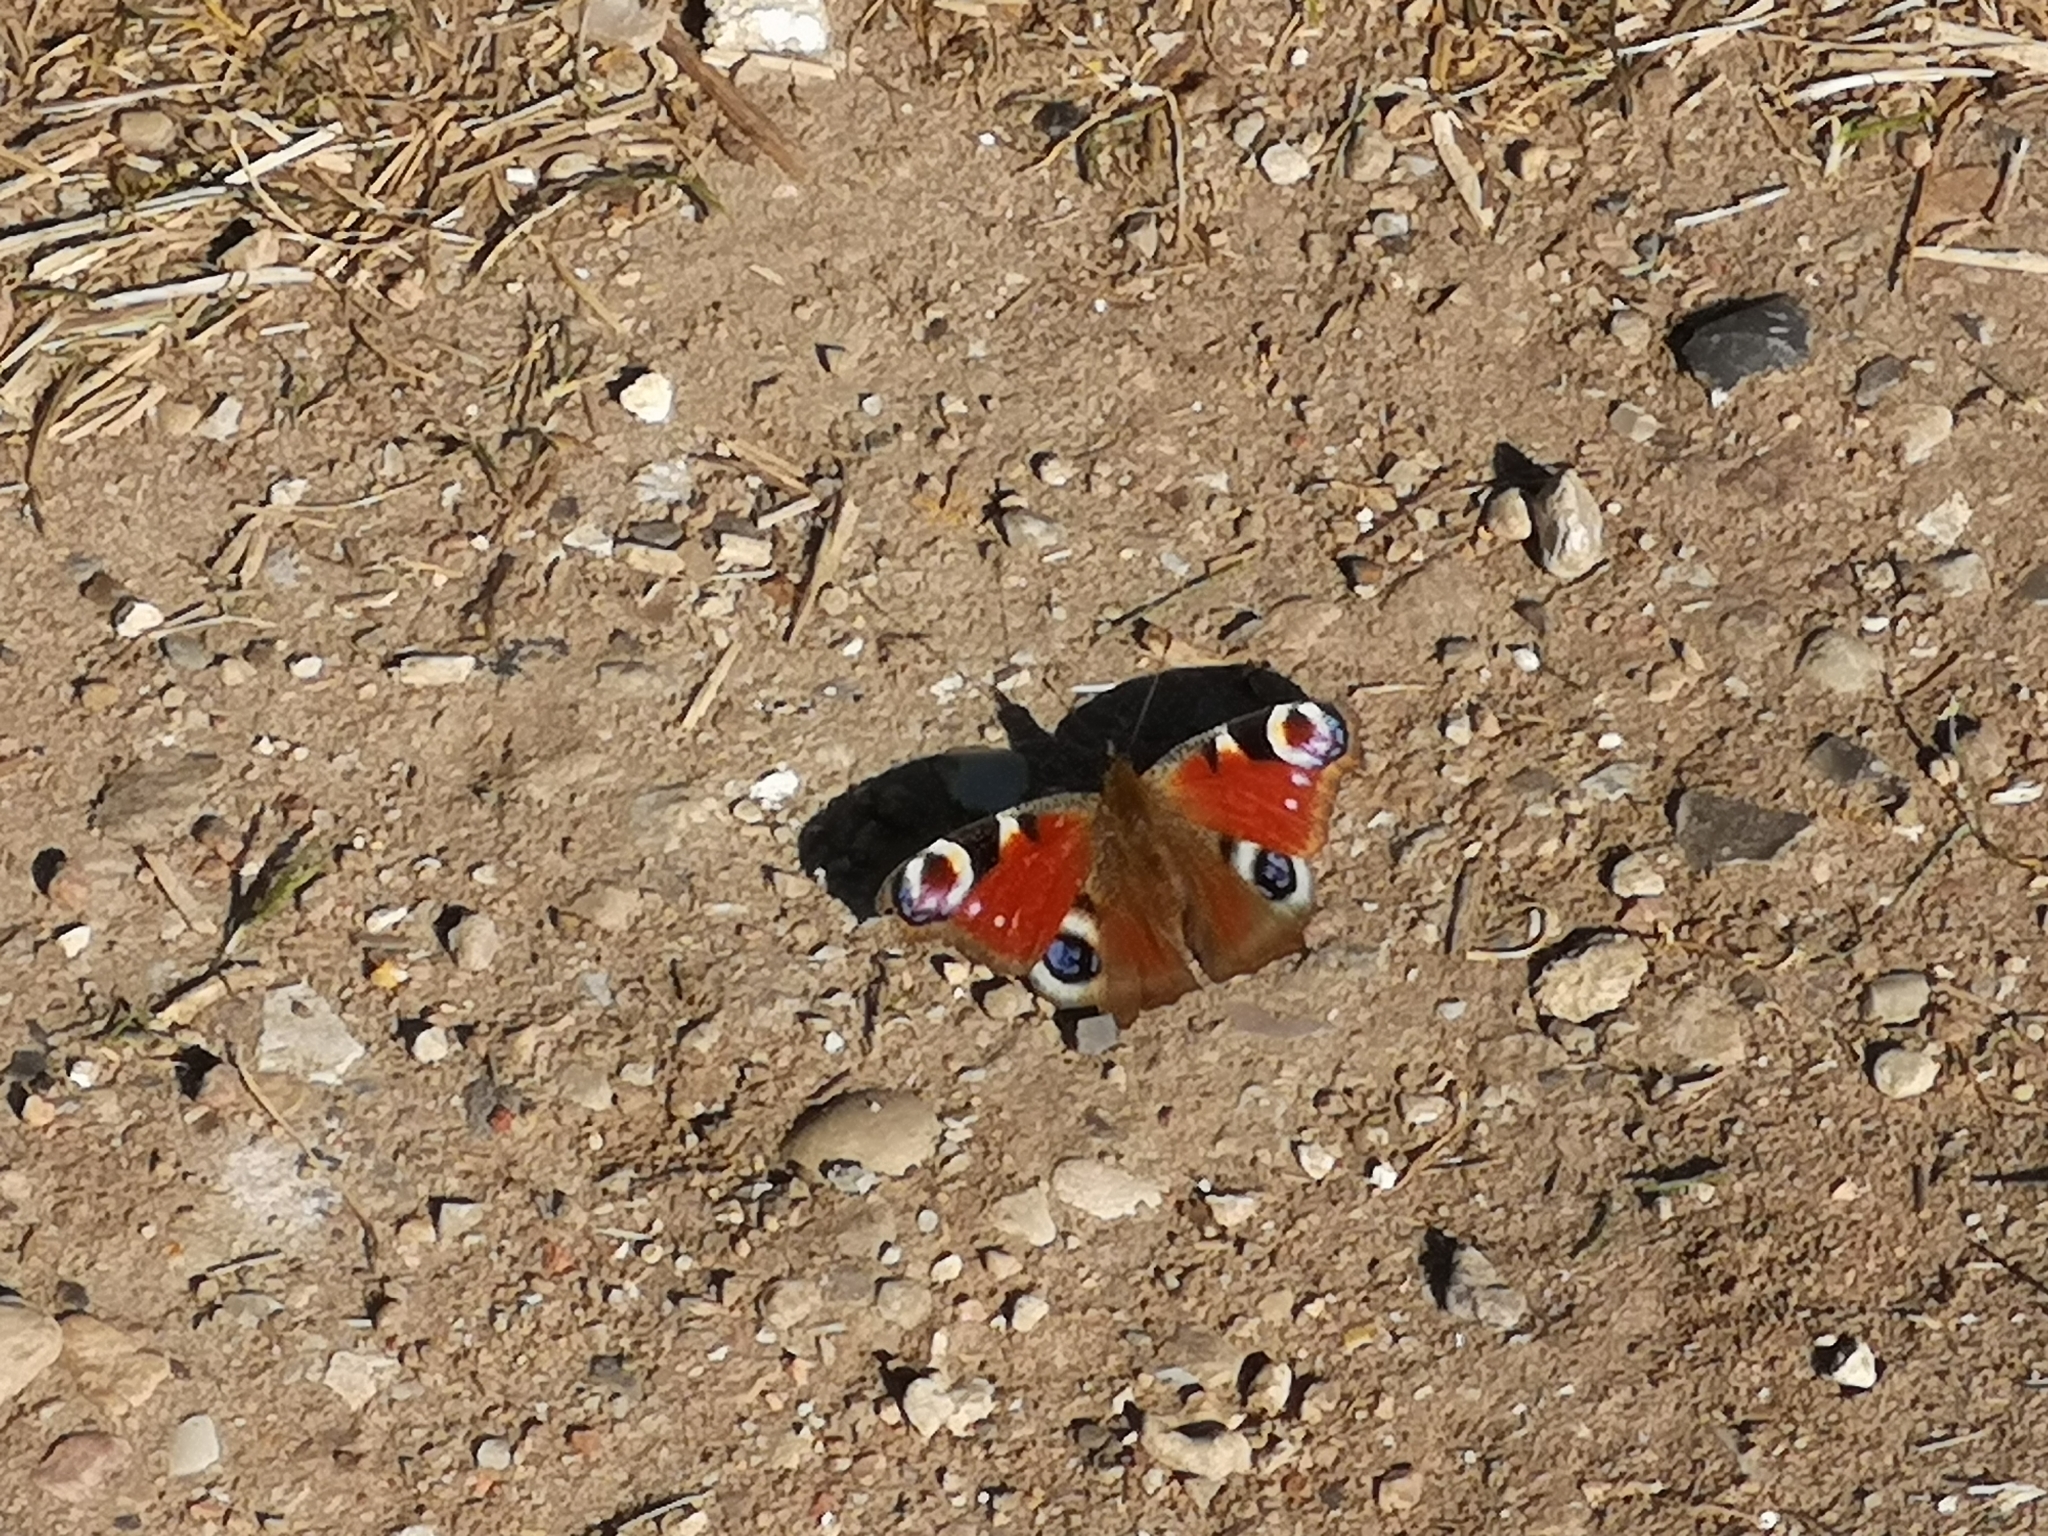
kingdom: Animalia
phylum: Arthropoda
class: Insecta
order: Lepidoptera
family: Nymphalidae
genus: Aglais
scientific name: Aglais io
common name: Peacock
